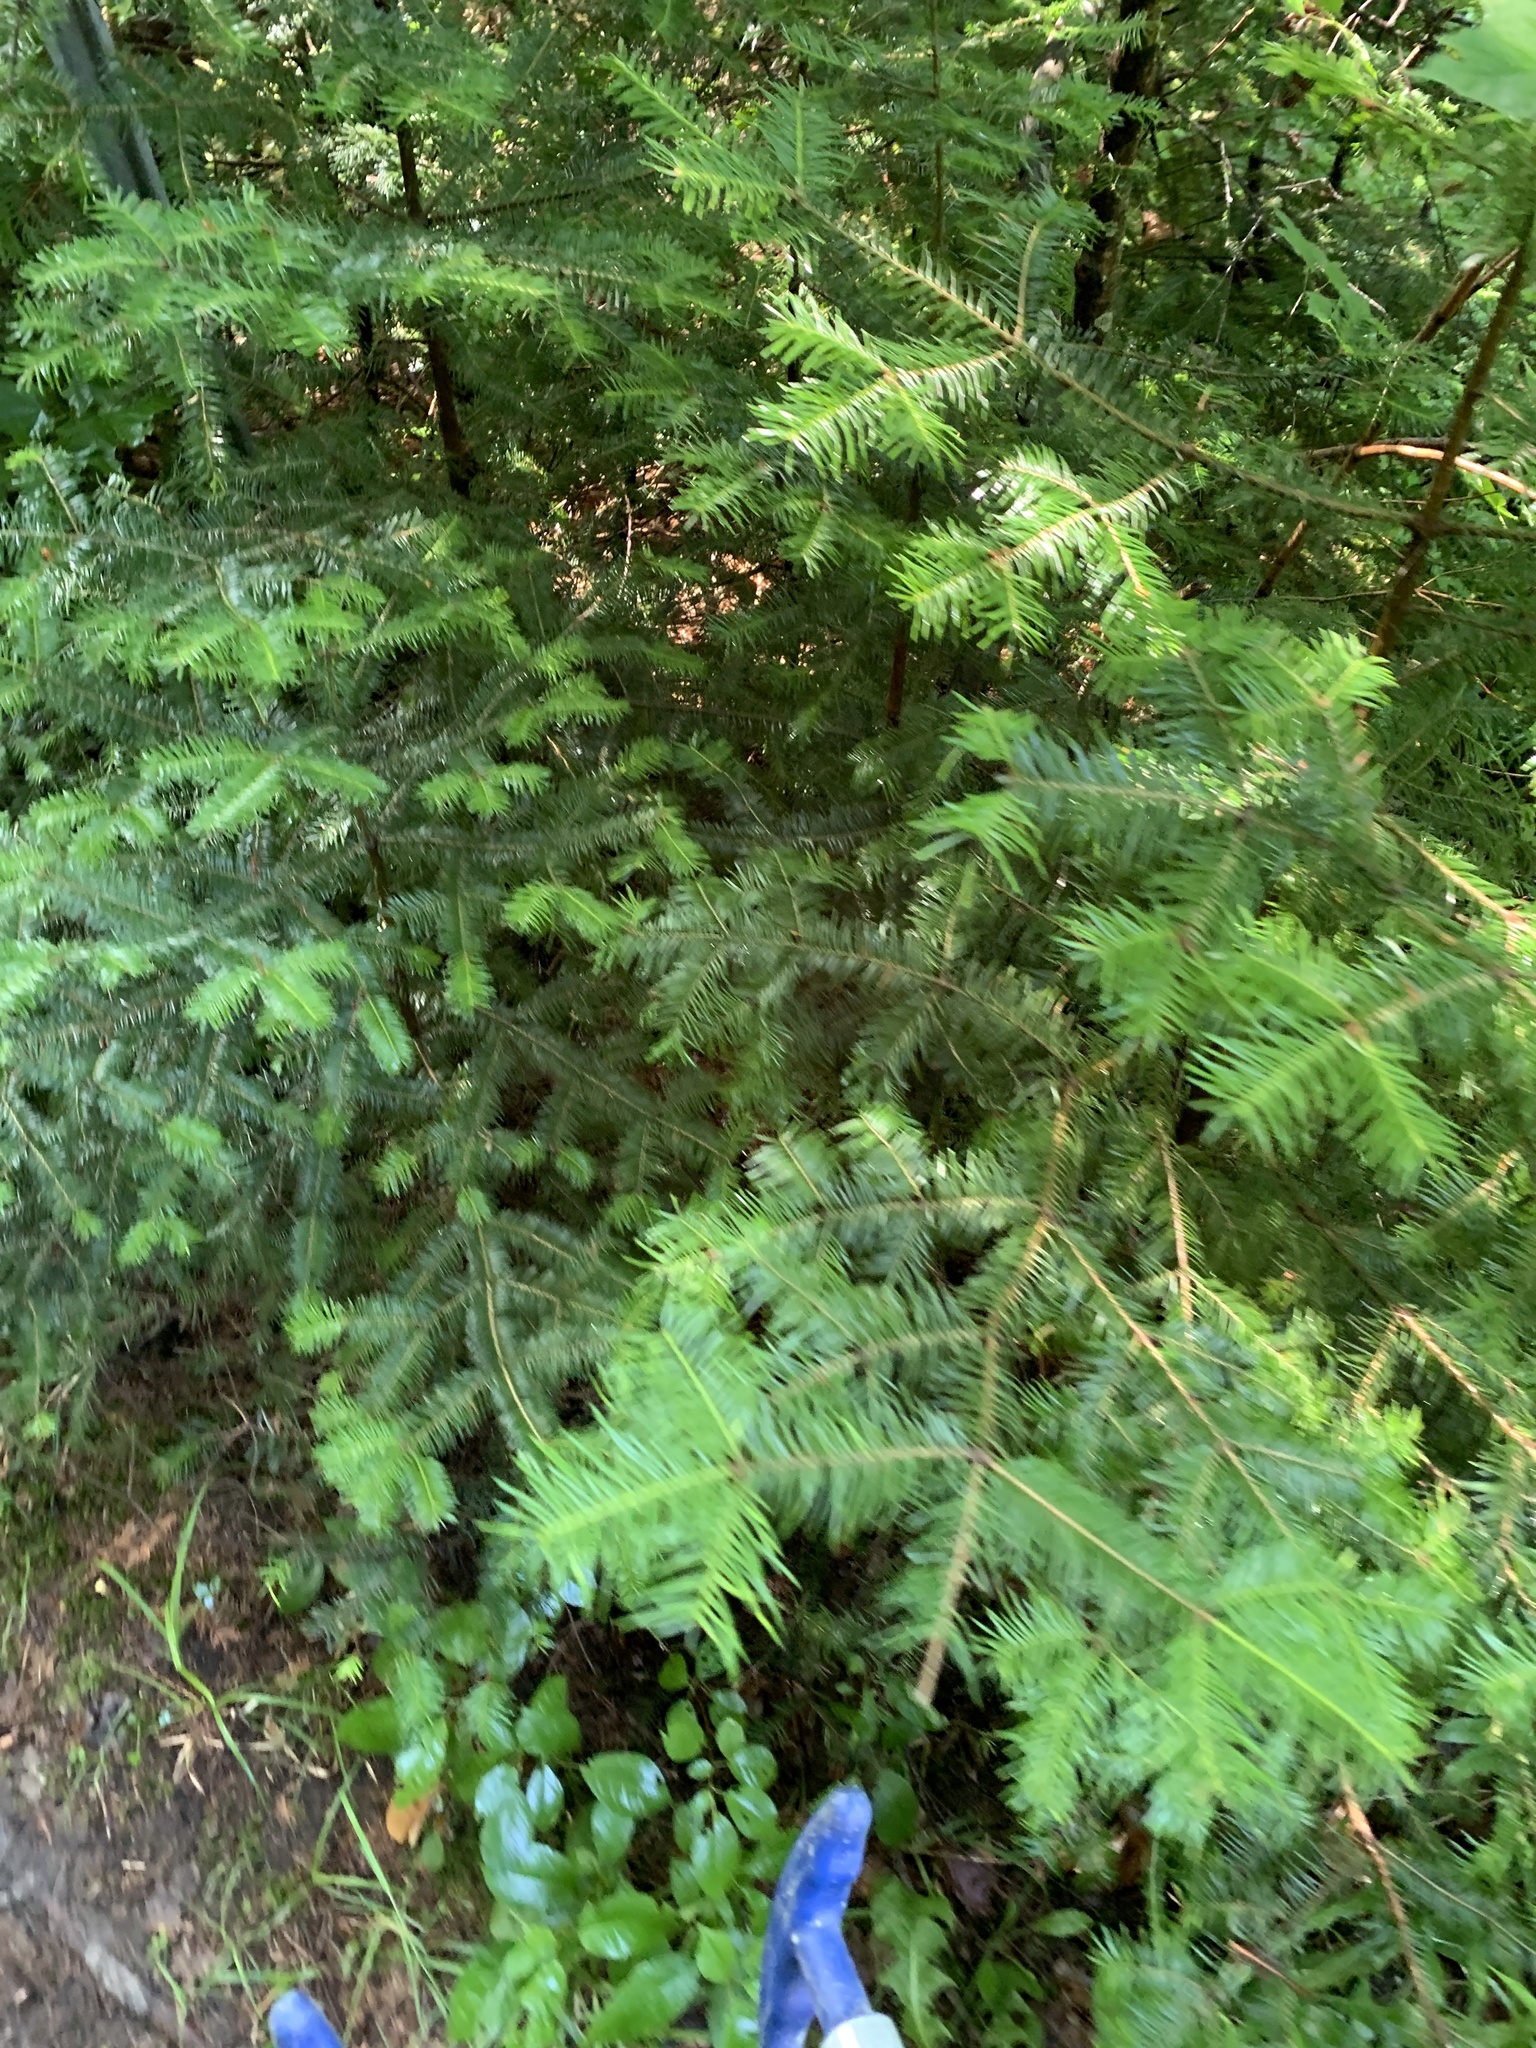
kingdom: Plantae
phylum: Tracheophyta
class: Pinopsida
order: Pinales
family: Pinaceae
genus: Abies
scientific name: Abies balsamea
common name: Balsam fir
